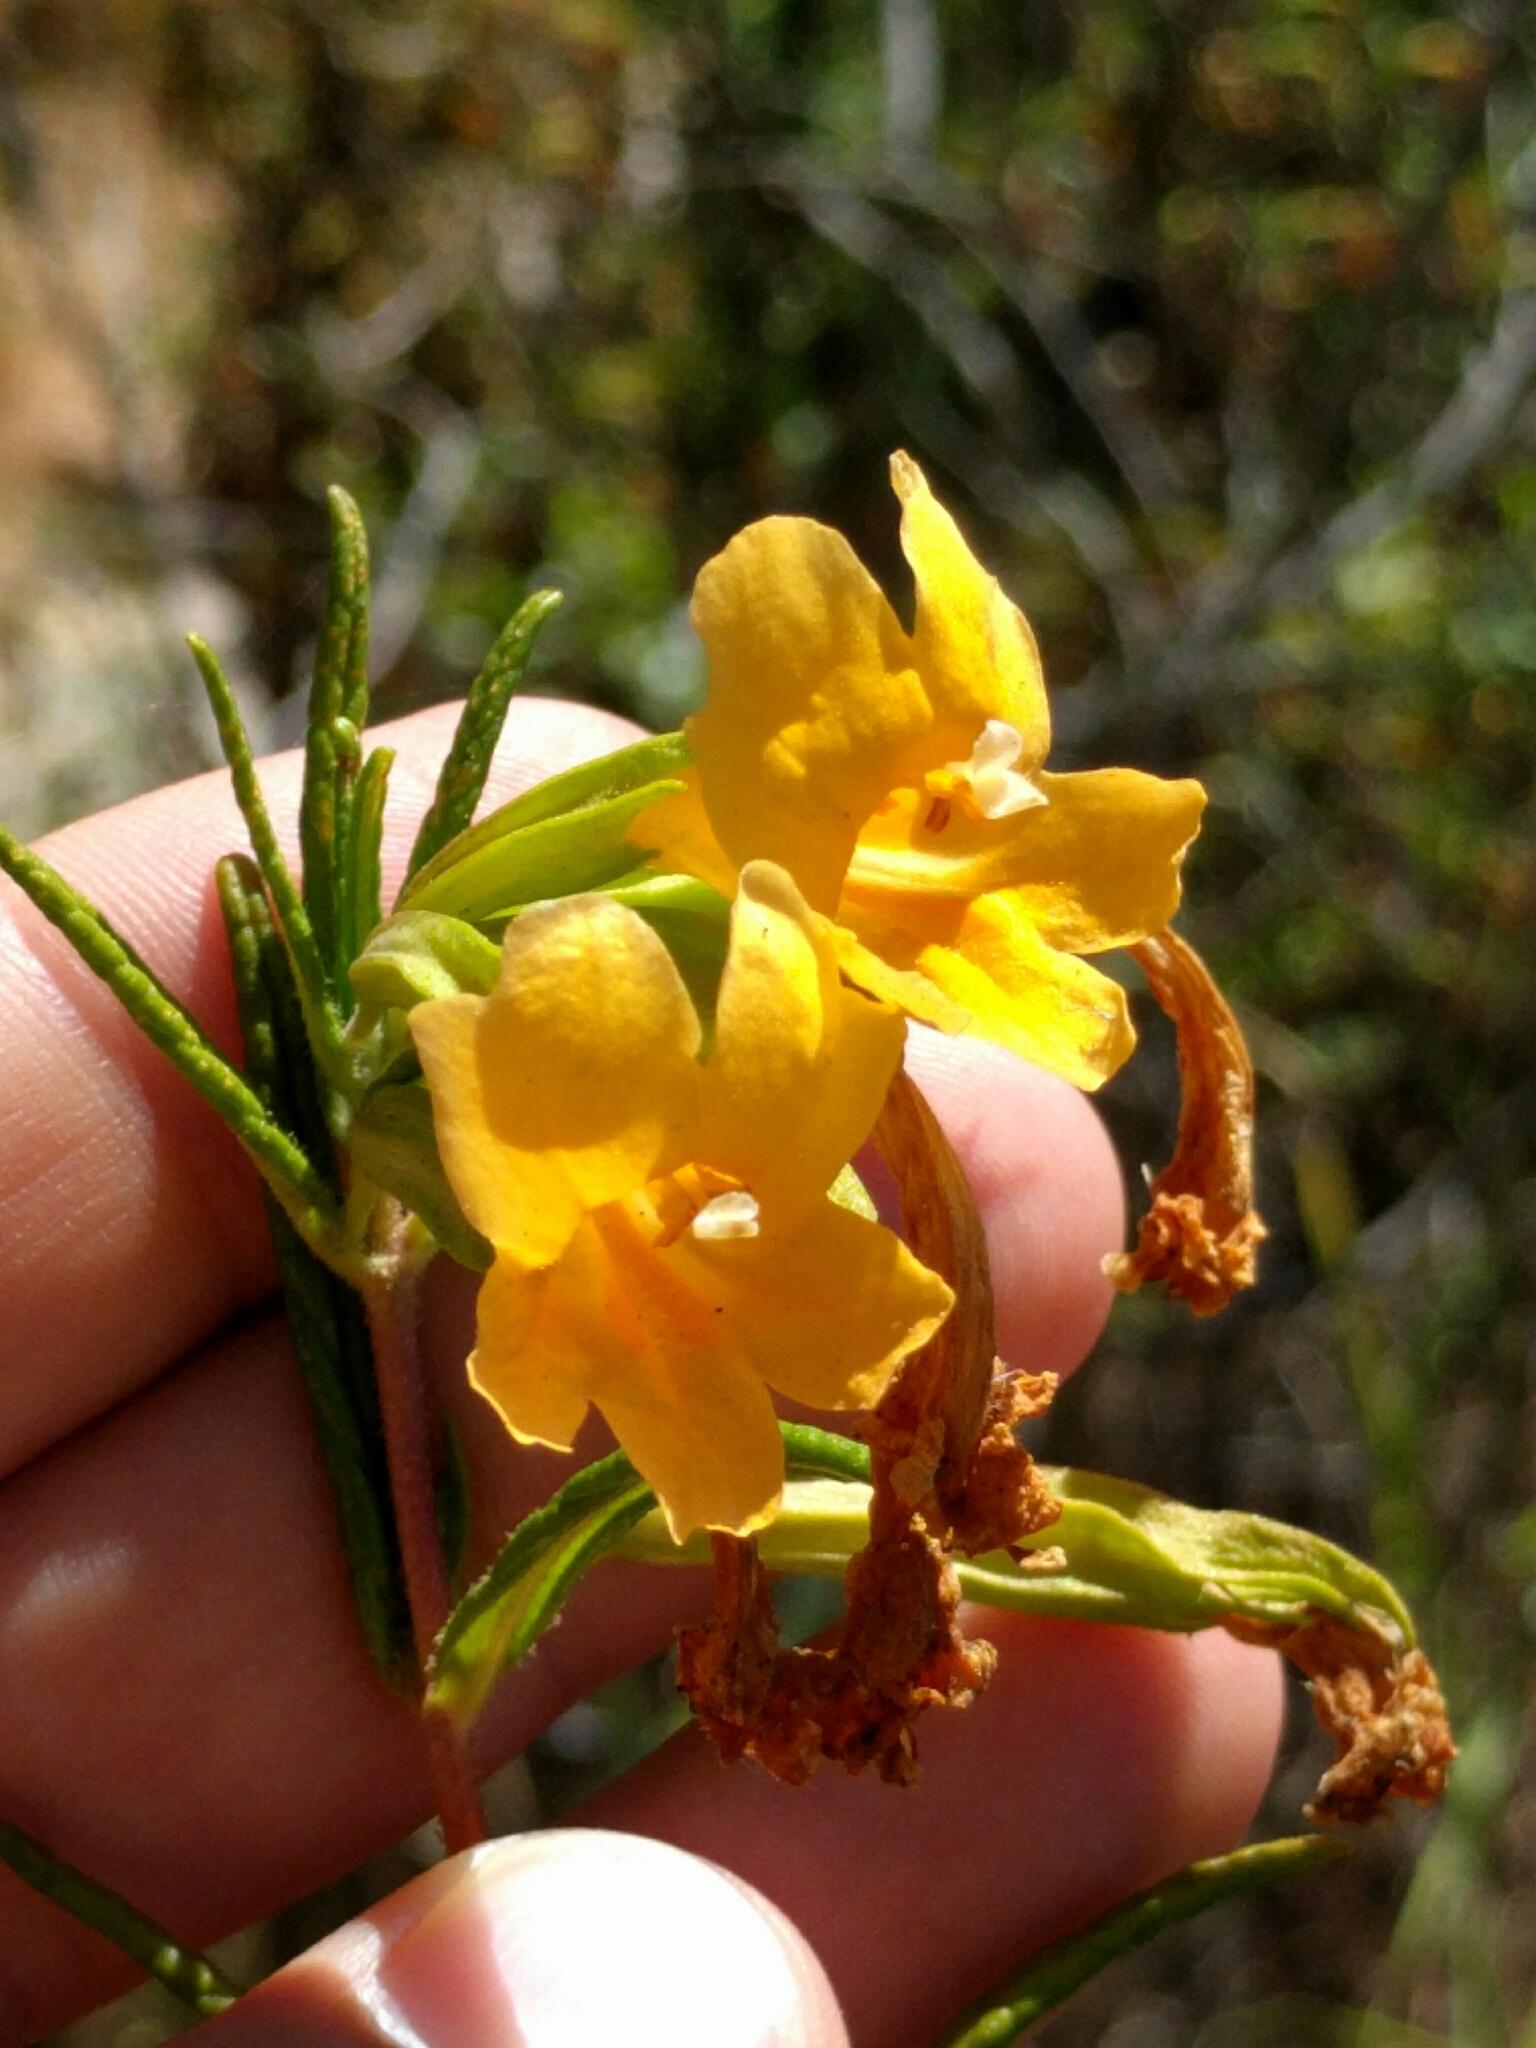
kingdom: Plantae
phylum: Tracheophyta
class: Magnoliopsida
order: Lamiales
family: Phrymaceae
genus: Diplacus
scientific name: Diplacus aurantiacus
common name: Bush monkey-flower
